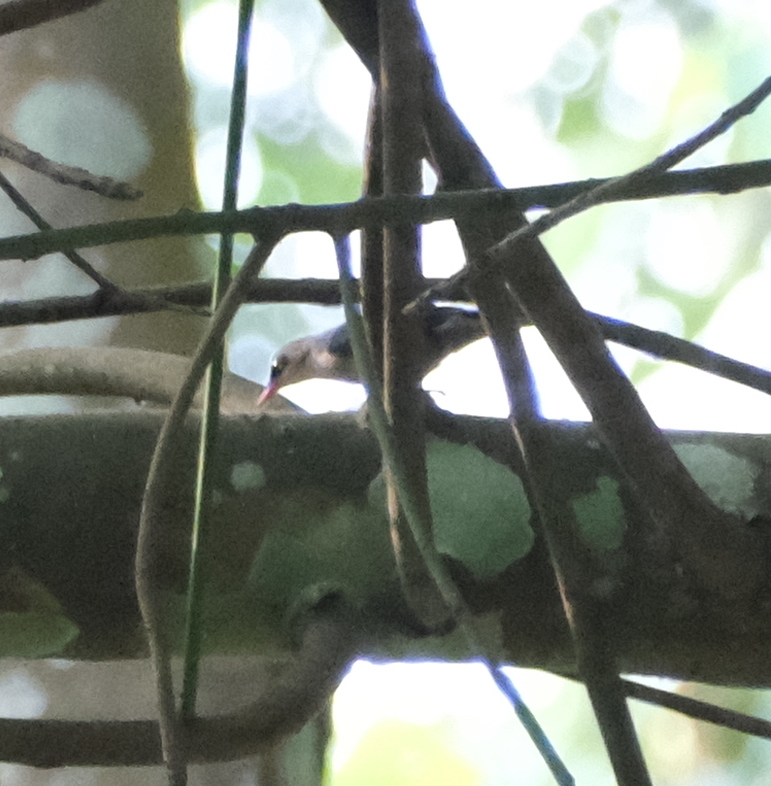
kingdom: Animalia
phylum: Chordata
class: Aves
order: Passeriformes
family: Sittidae
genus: Sitta
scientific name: Sitta frontalis
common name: Velvet-fronted nuthatch
